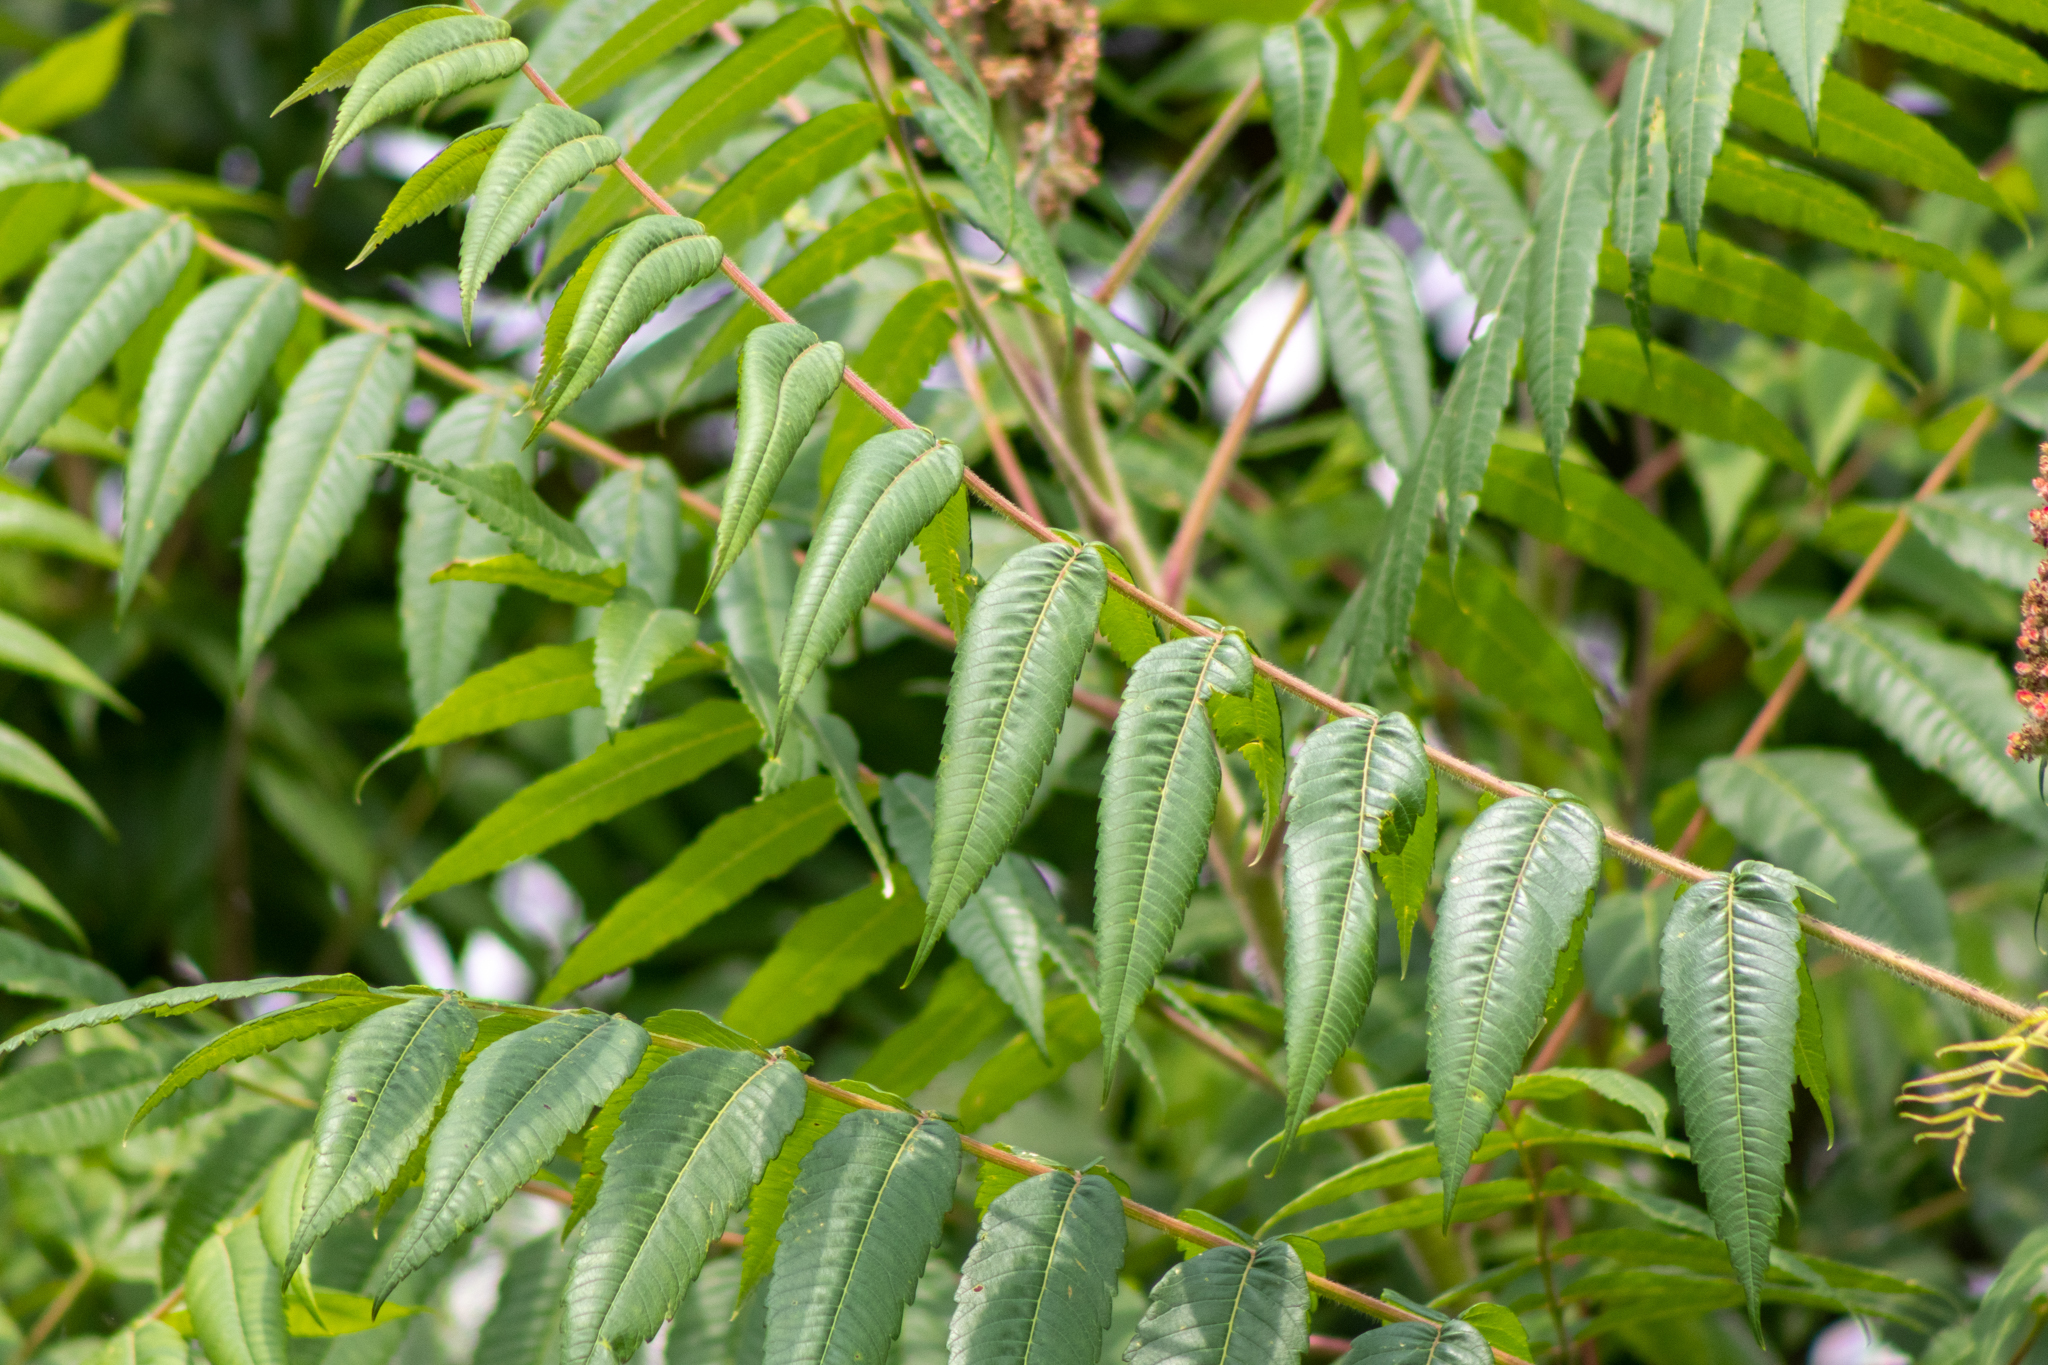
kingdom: Plantae
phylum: Tracheophyta
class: Magnoliopsida
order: Sapindales
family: Anacardiaceae
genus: Rhus
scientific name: Rhus typhina
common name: Staghorn sumac
